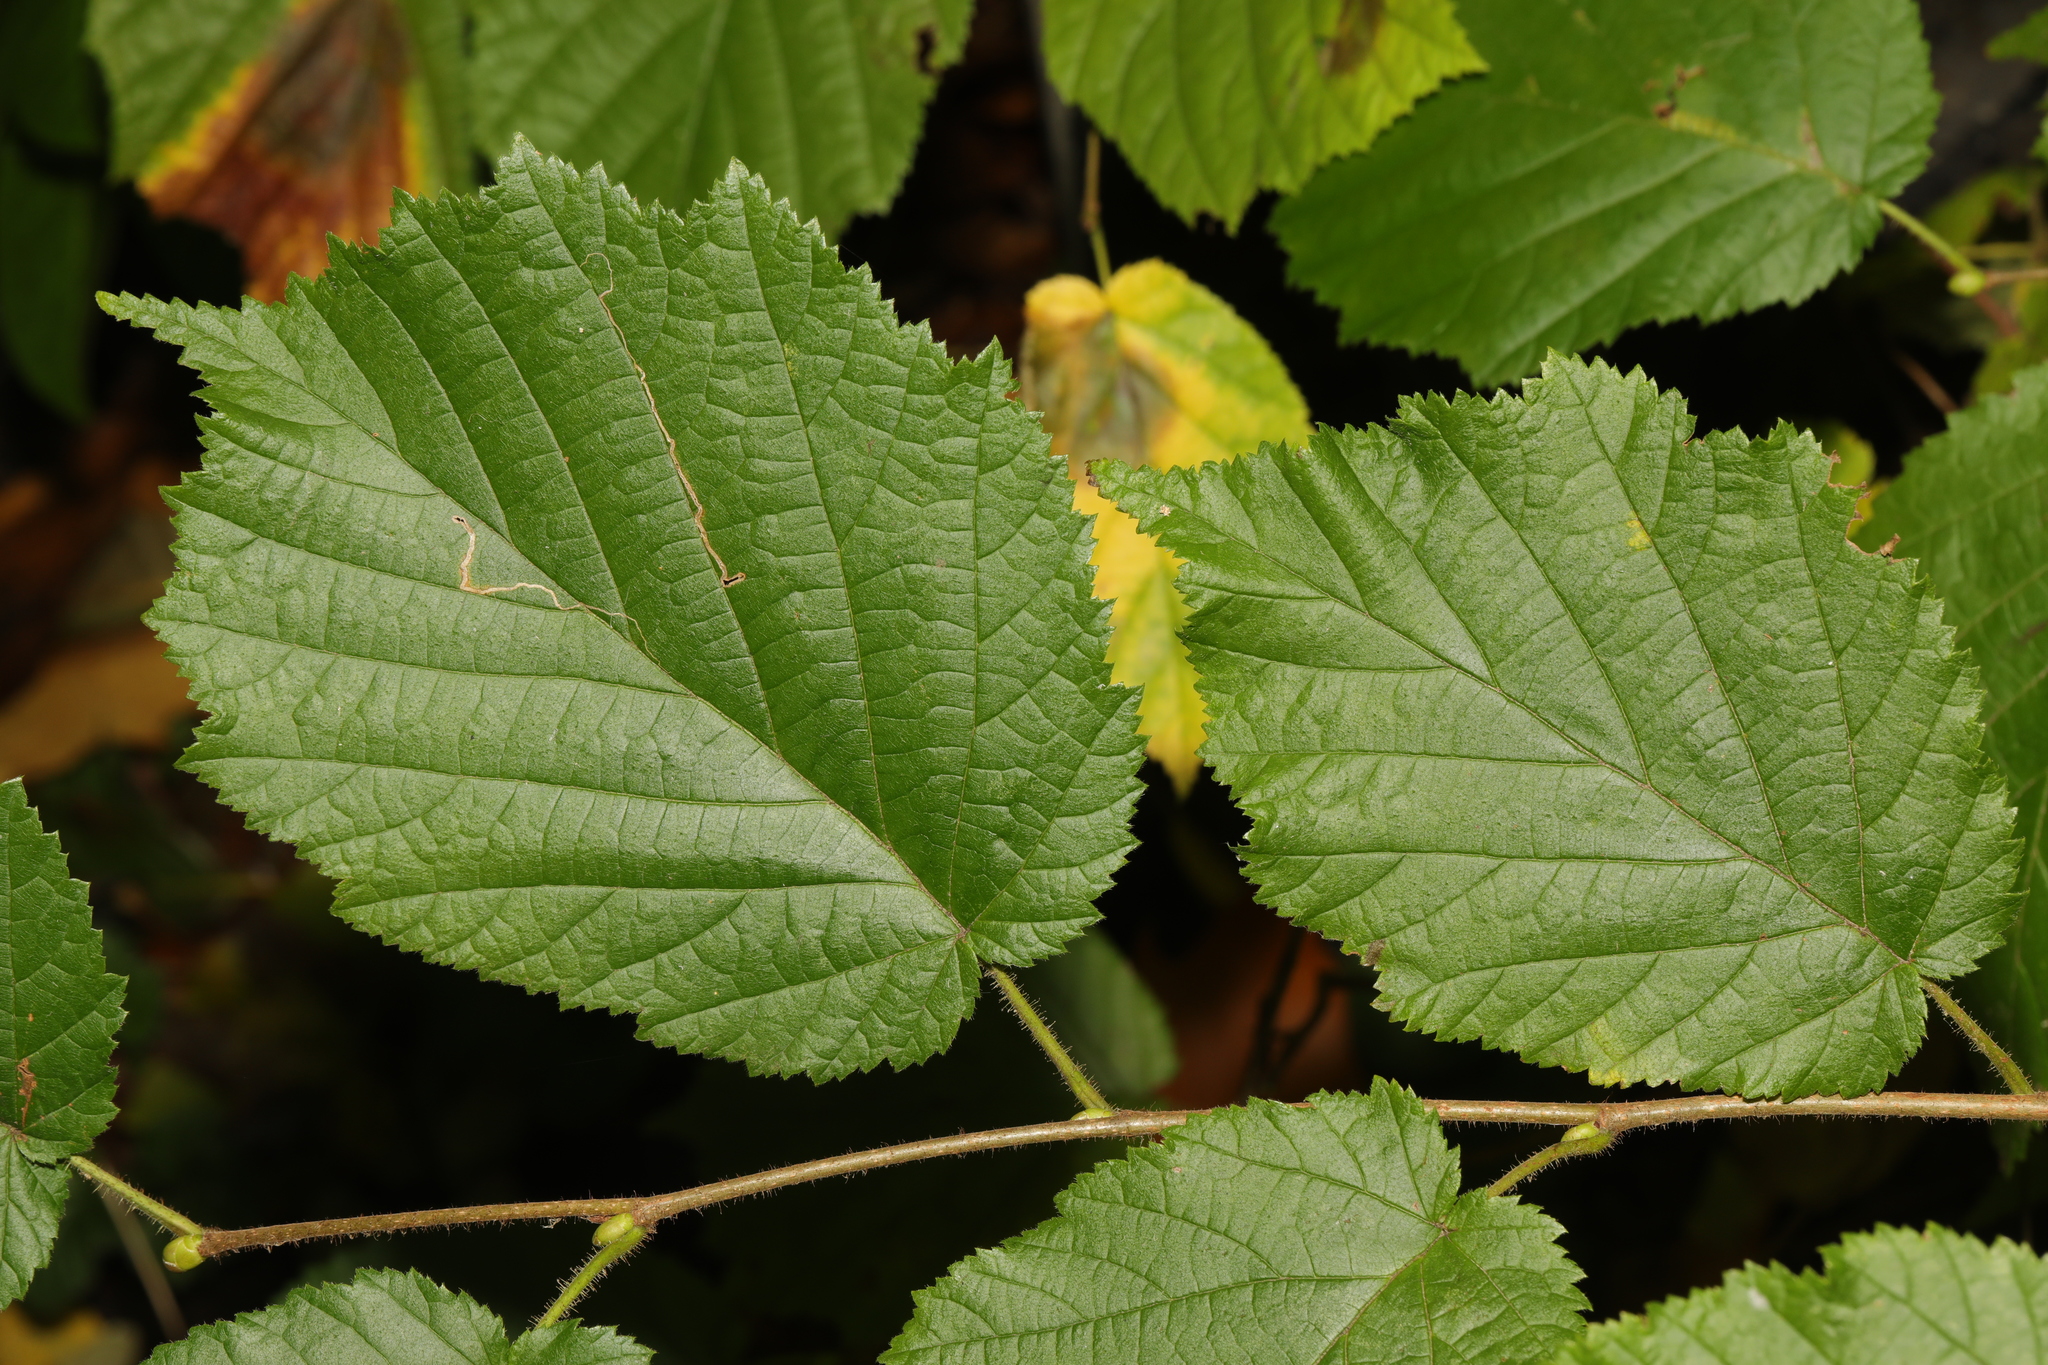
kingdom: Plantae
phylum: Tracheophyta
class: Magnoliopsida
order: Fagales
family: Betulaceae
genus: Corylus
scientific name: Corylus avellana
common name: European hazel
